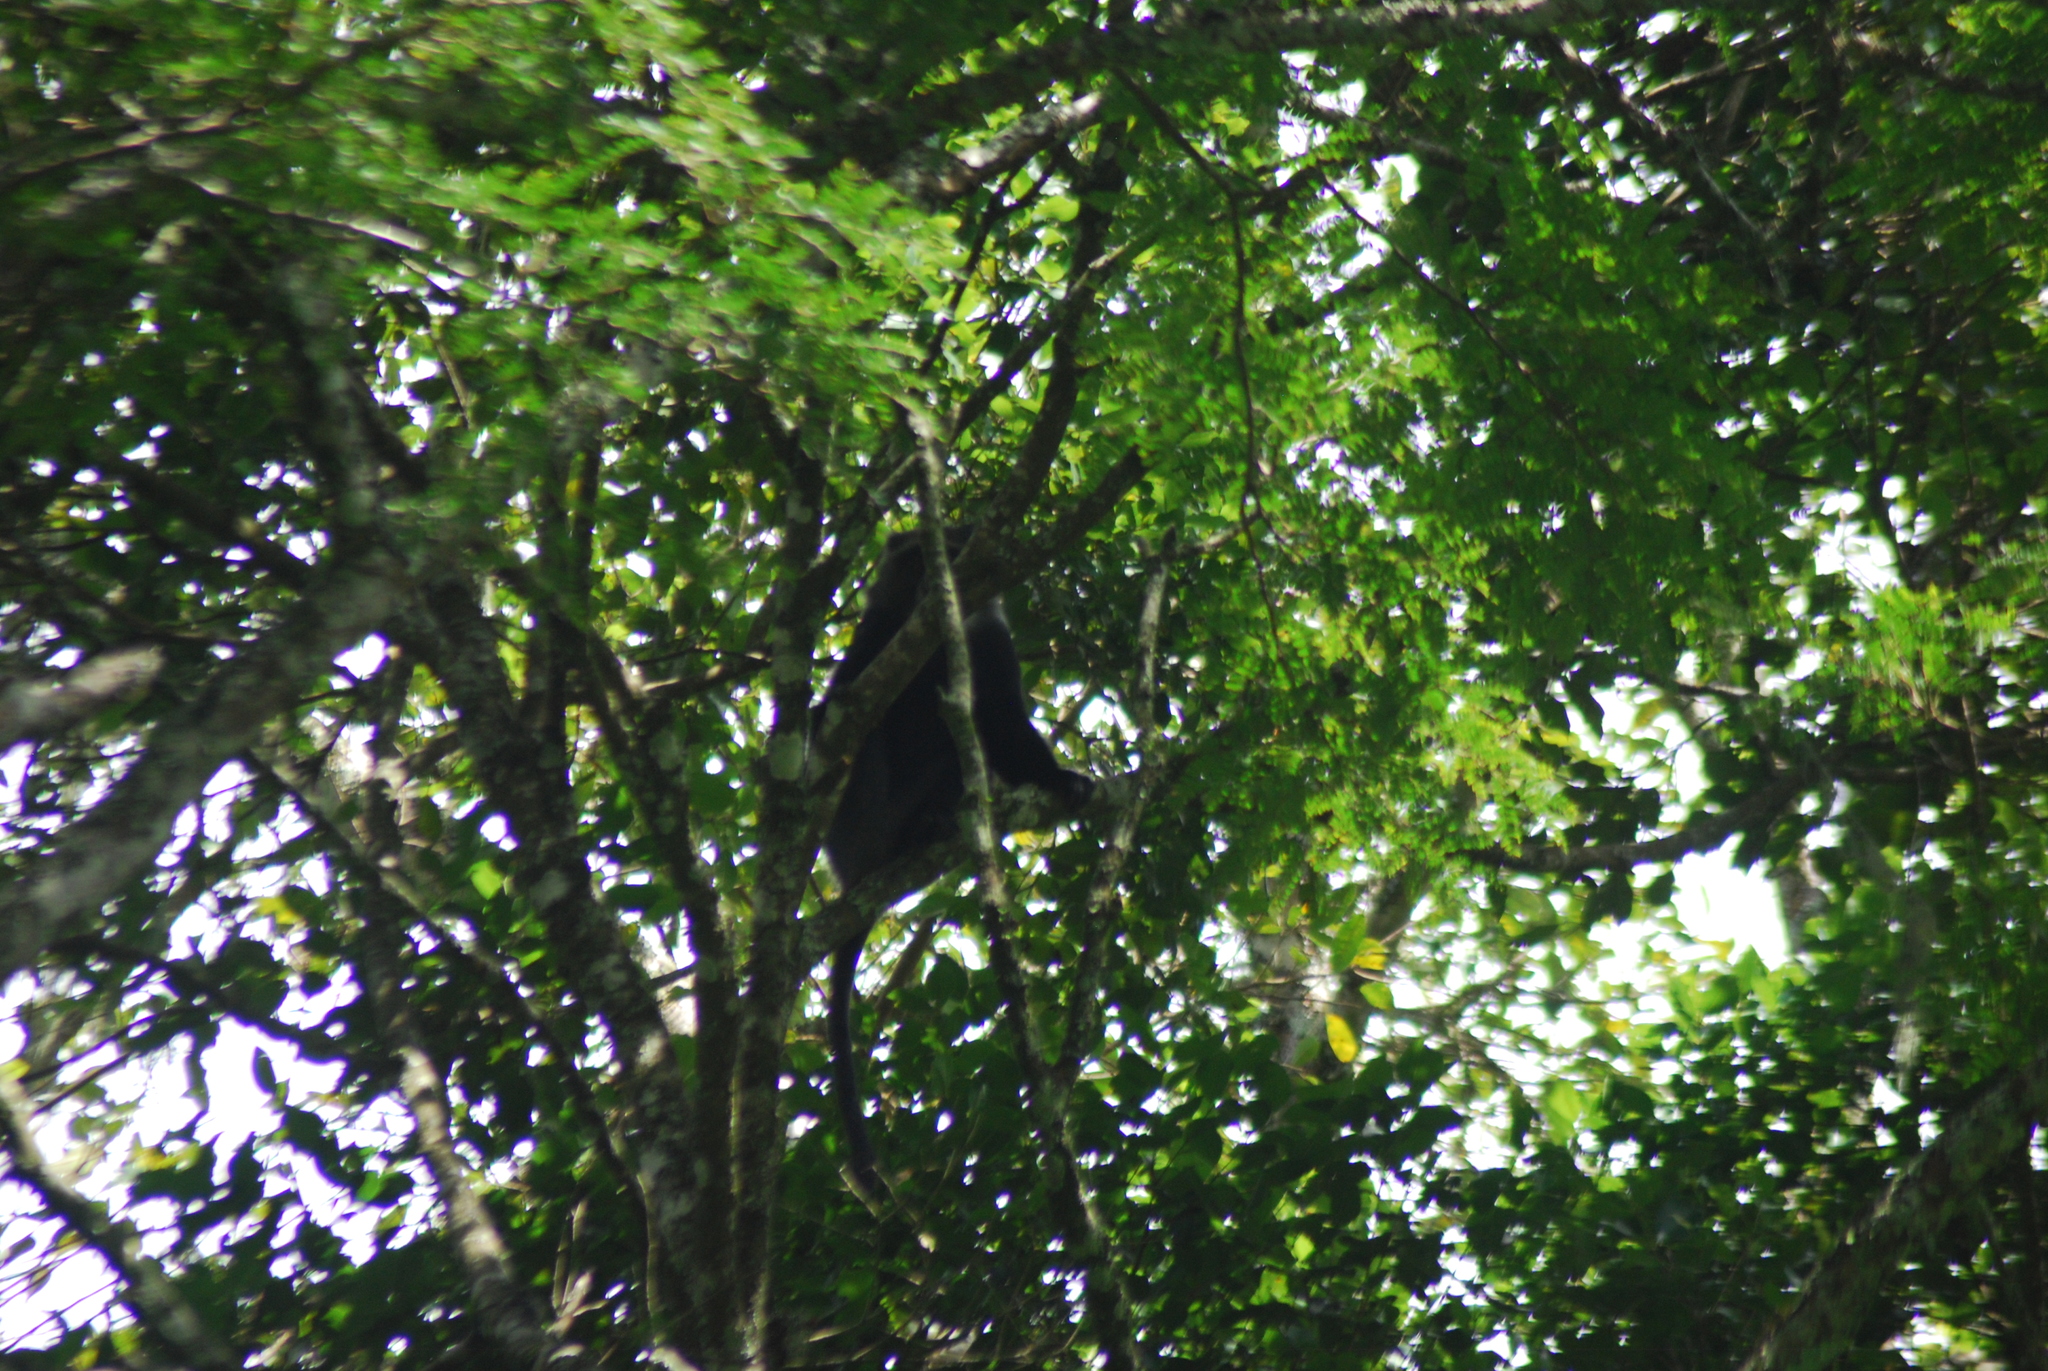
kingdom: Animalia
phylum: Chordata
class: Mammalia
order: Primates
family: Cercopithecidae
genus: Cercopithecus
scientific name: Cercopithecus mitis
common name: Blue monkey
